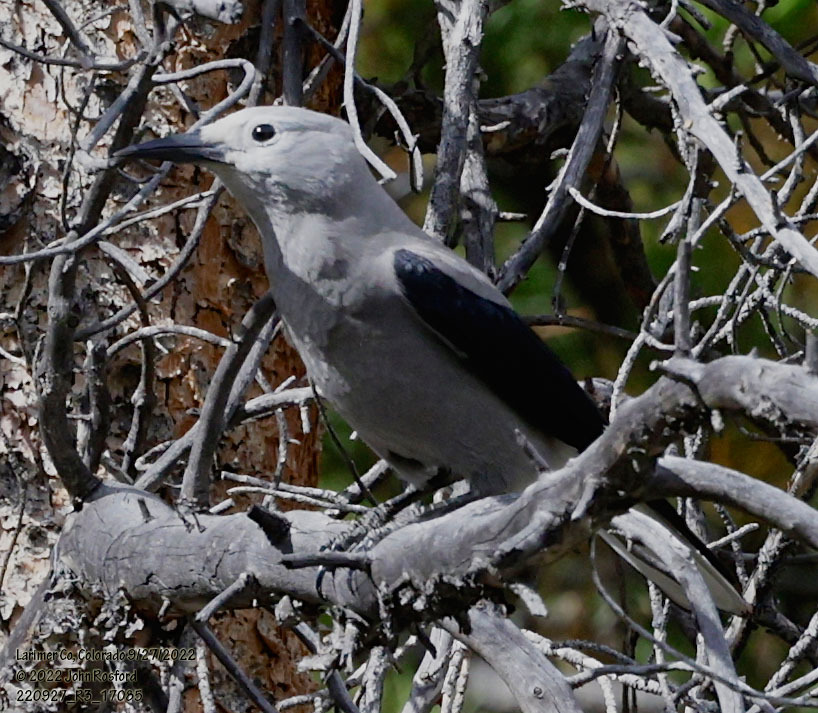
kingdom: Animalia
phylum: Chordata
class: Aves
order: Passeriformes
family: Corvidae
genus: Nucifraga
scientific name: Nucifraga columbiana
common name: Clark's nutcracker
